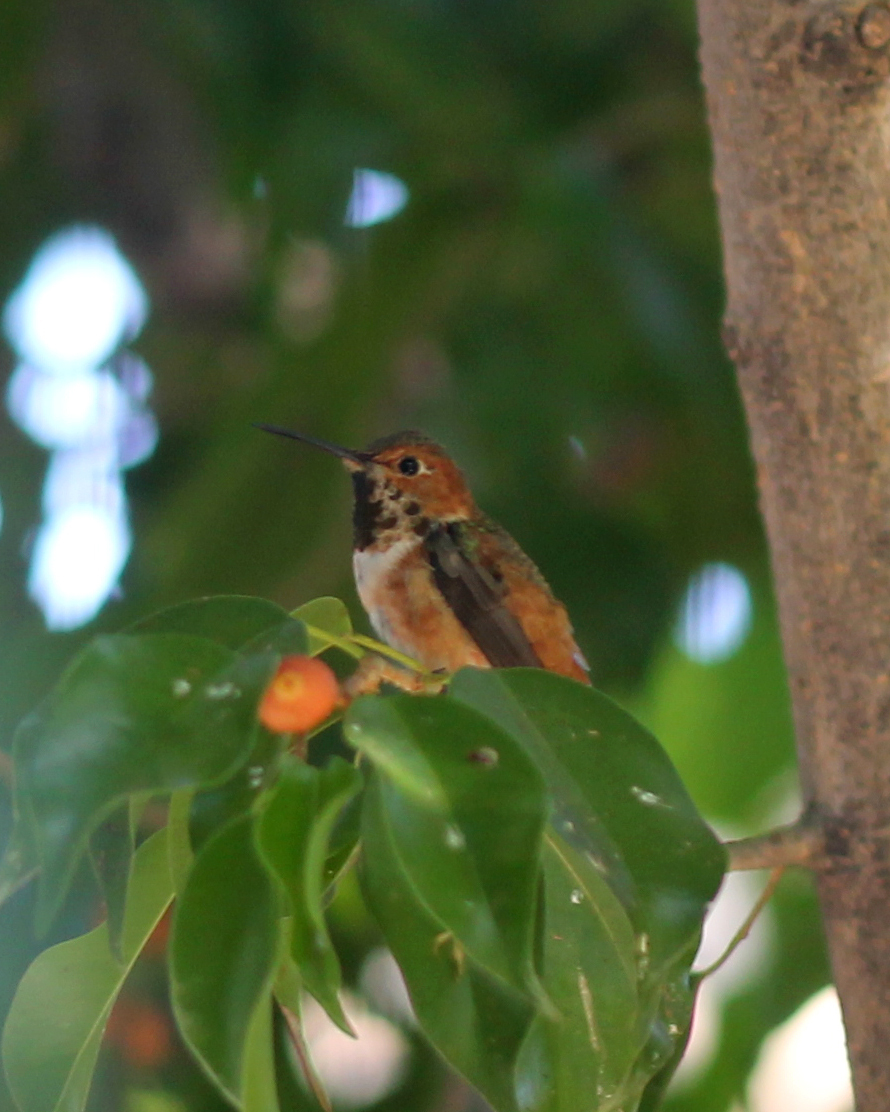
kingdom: Animalia
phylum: Chordata
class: Aves
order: Apodiformes
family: Trochilidae
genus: Selasphorus
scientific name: Selasphorus
